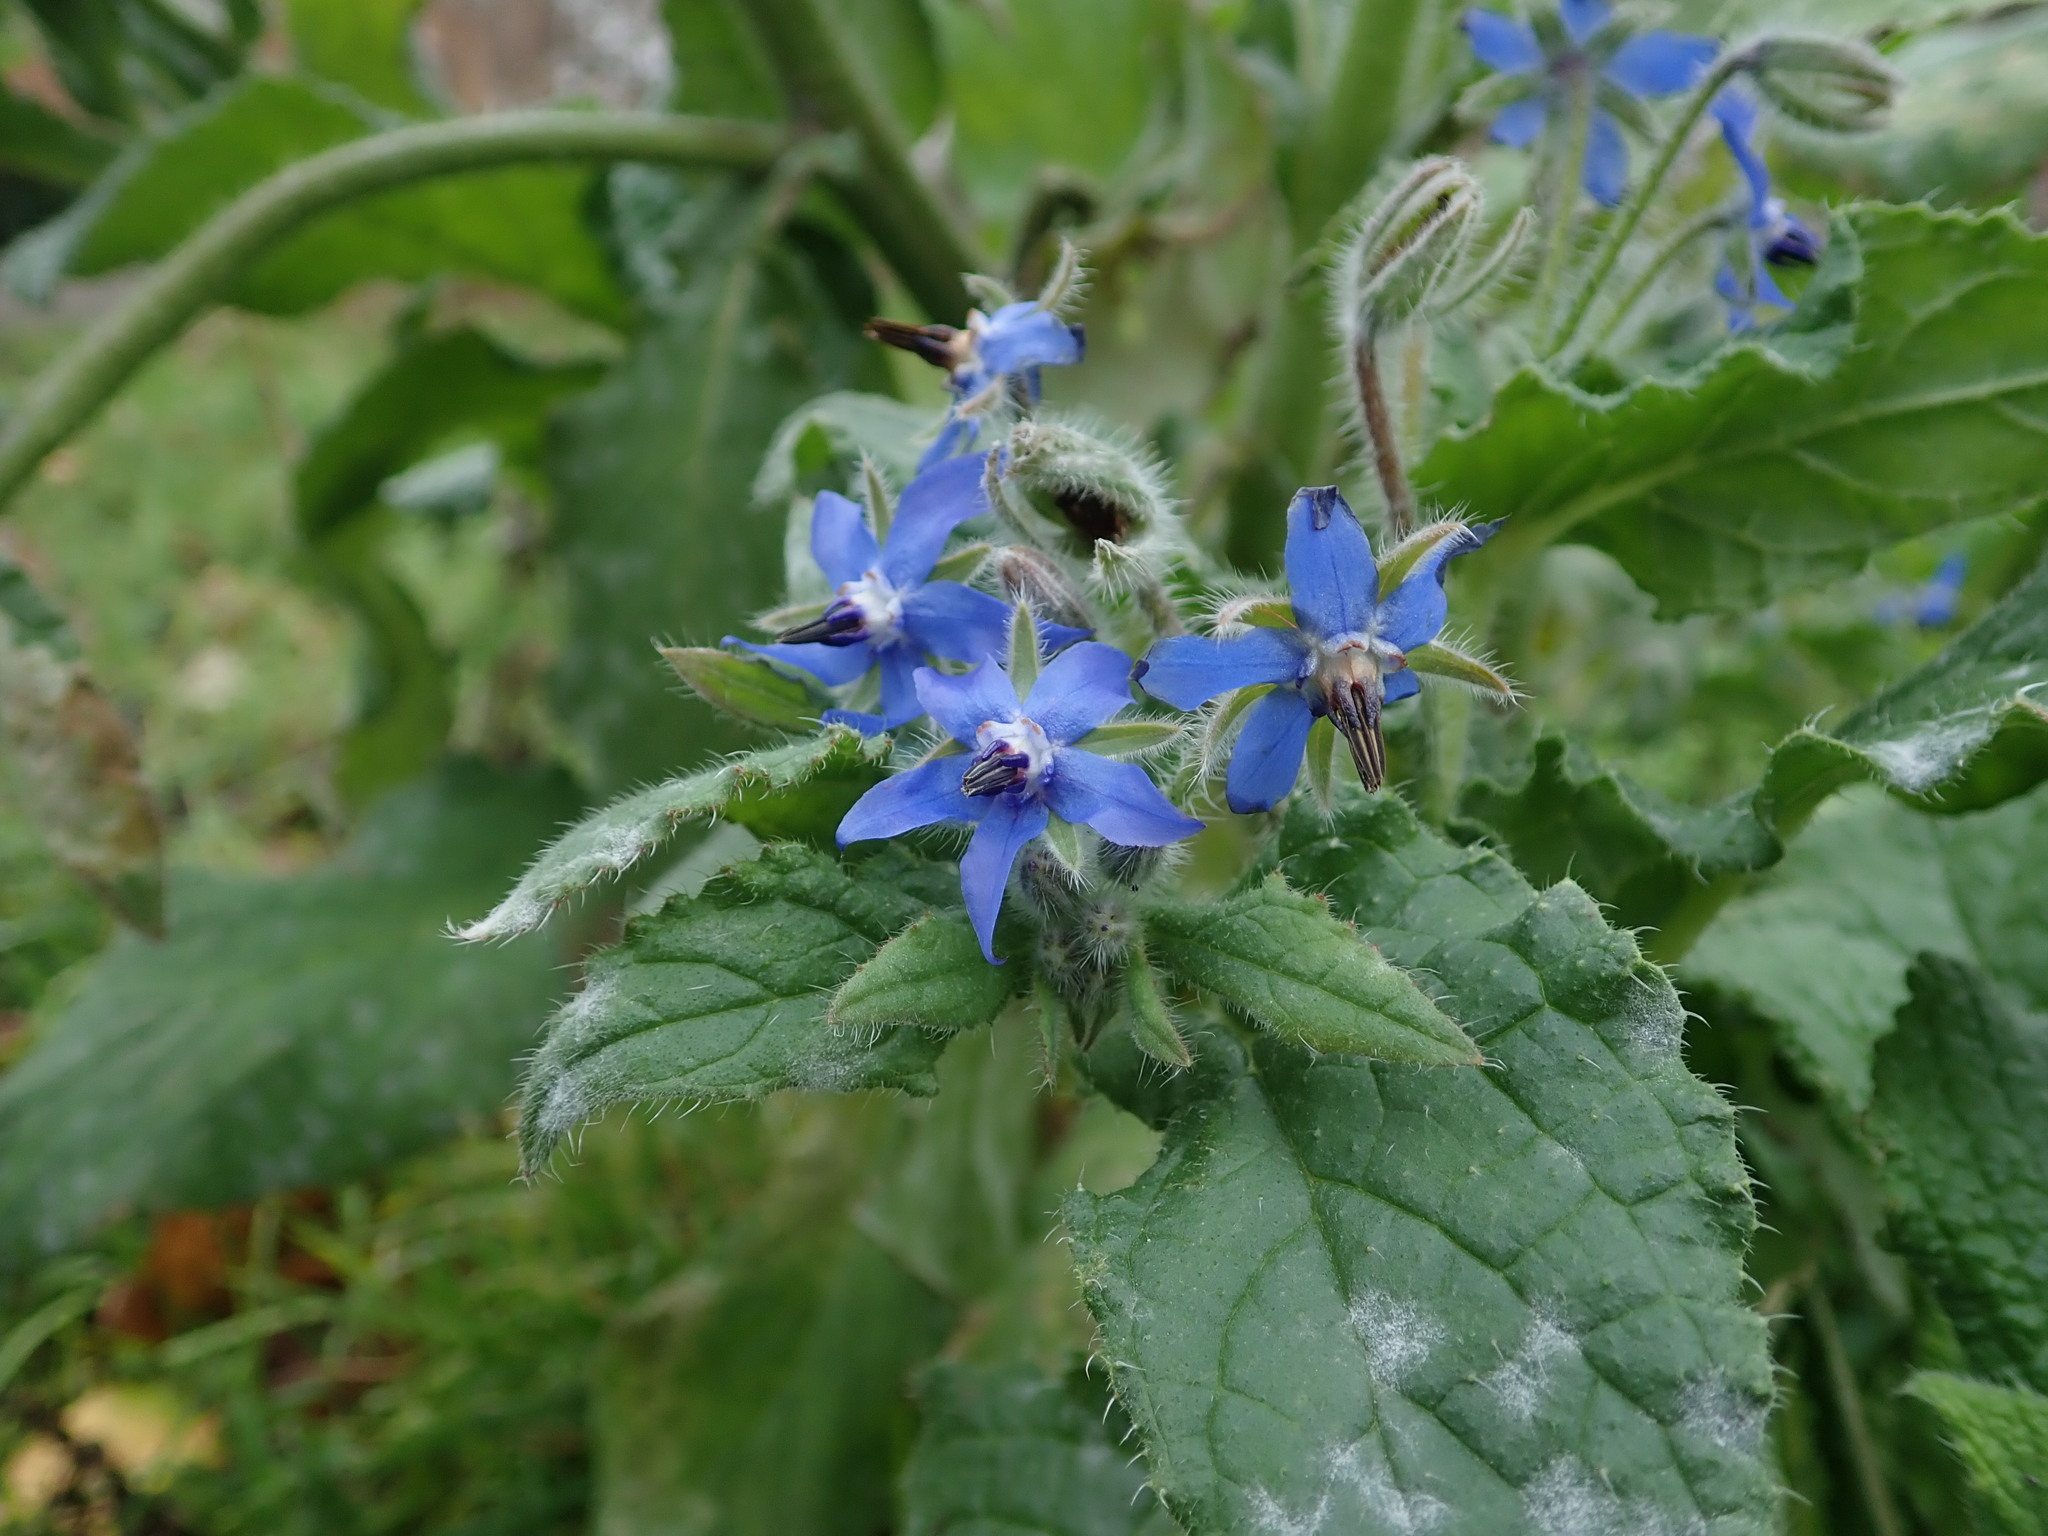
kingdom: Plantae
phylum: Tracheophyta
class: Magnoliopsida
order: Boraginales
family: Boraginaceae
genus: Borago
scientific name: Borago officinalis
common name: Borage
